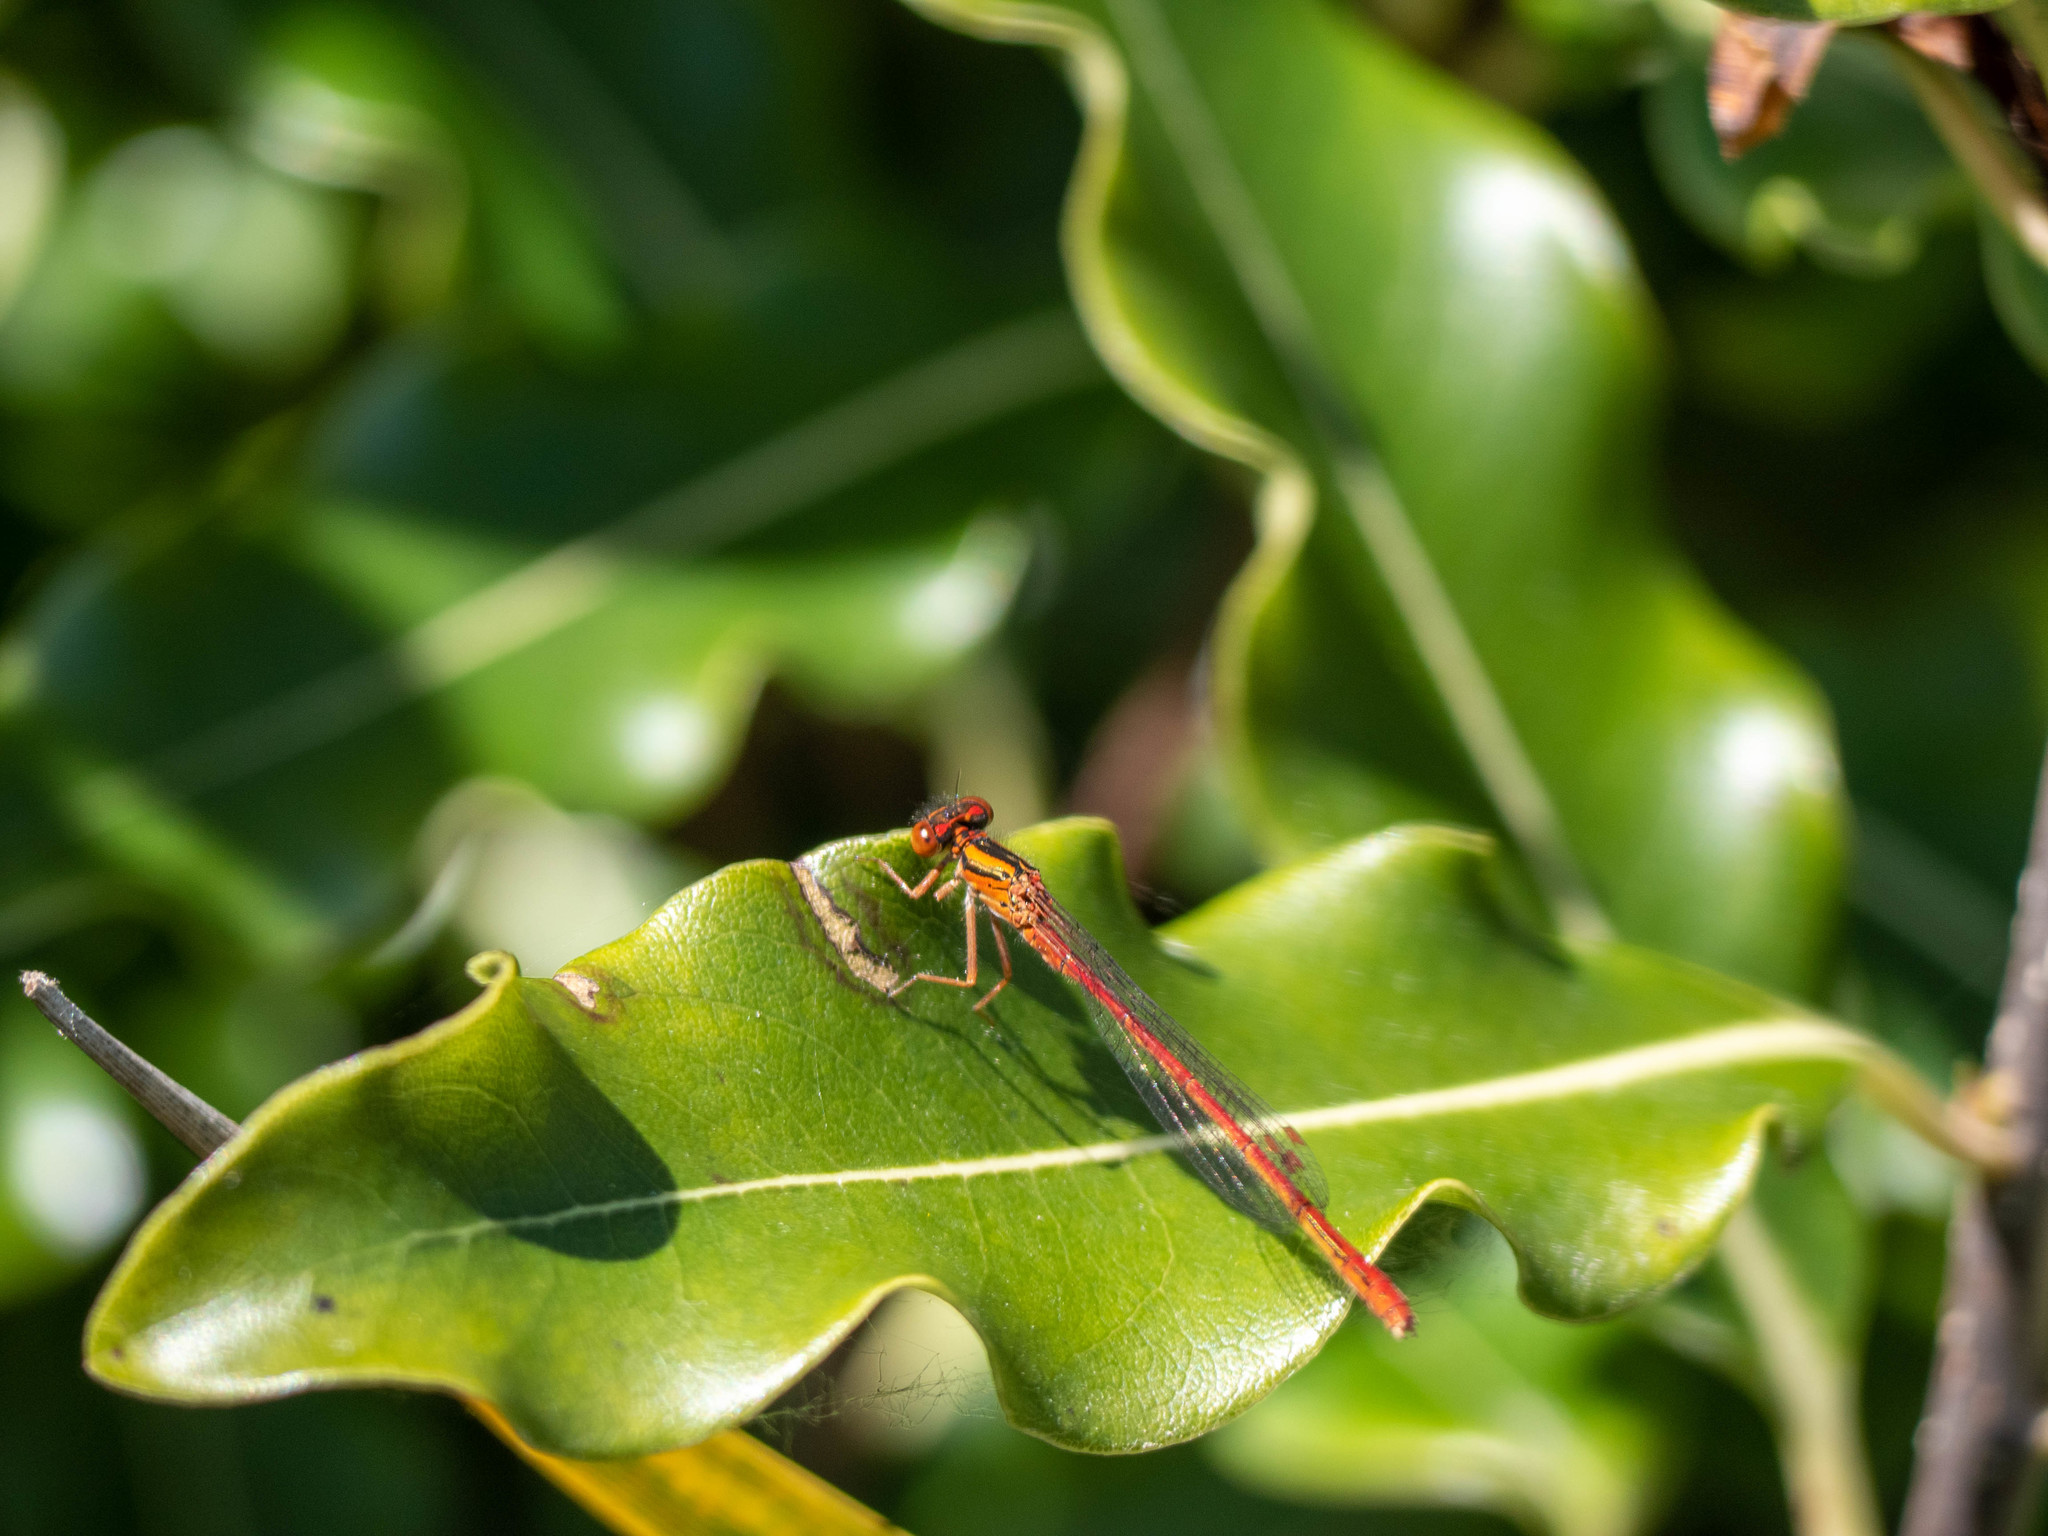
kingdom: Animalia
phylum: Arthropoda
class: Insecta
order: Odonata
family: Coenagrionidae
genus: Xanthocnemis
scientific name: Xanthocnemis zealandica
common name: Common redcoat damselfly
